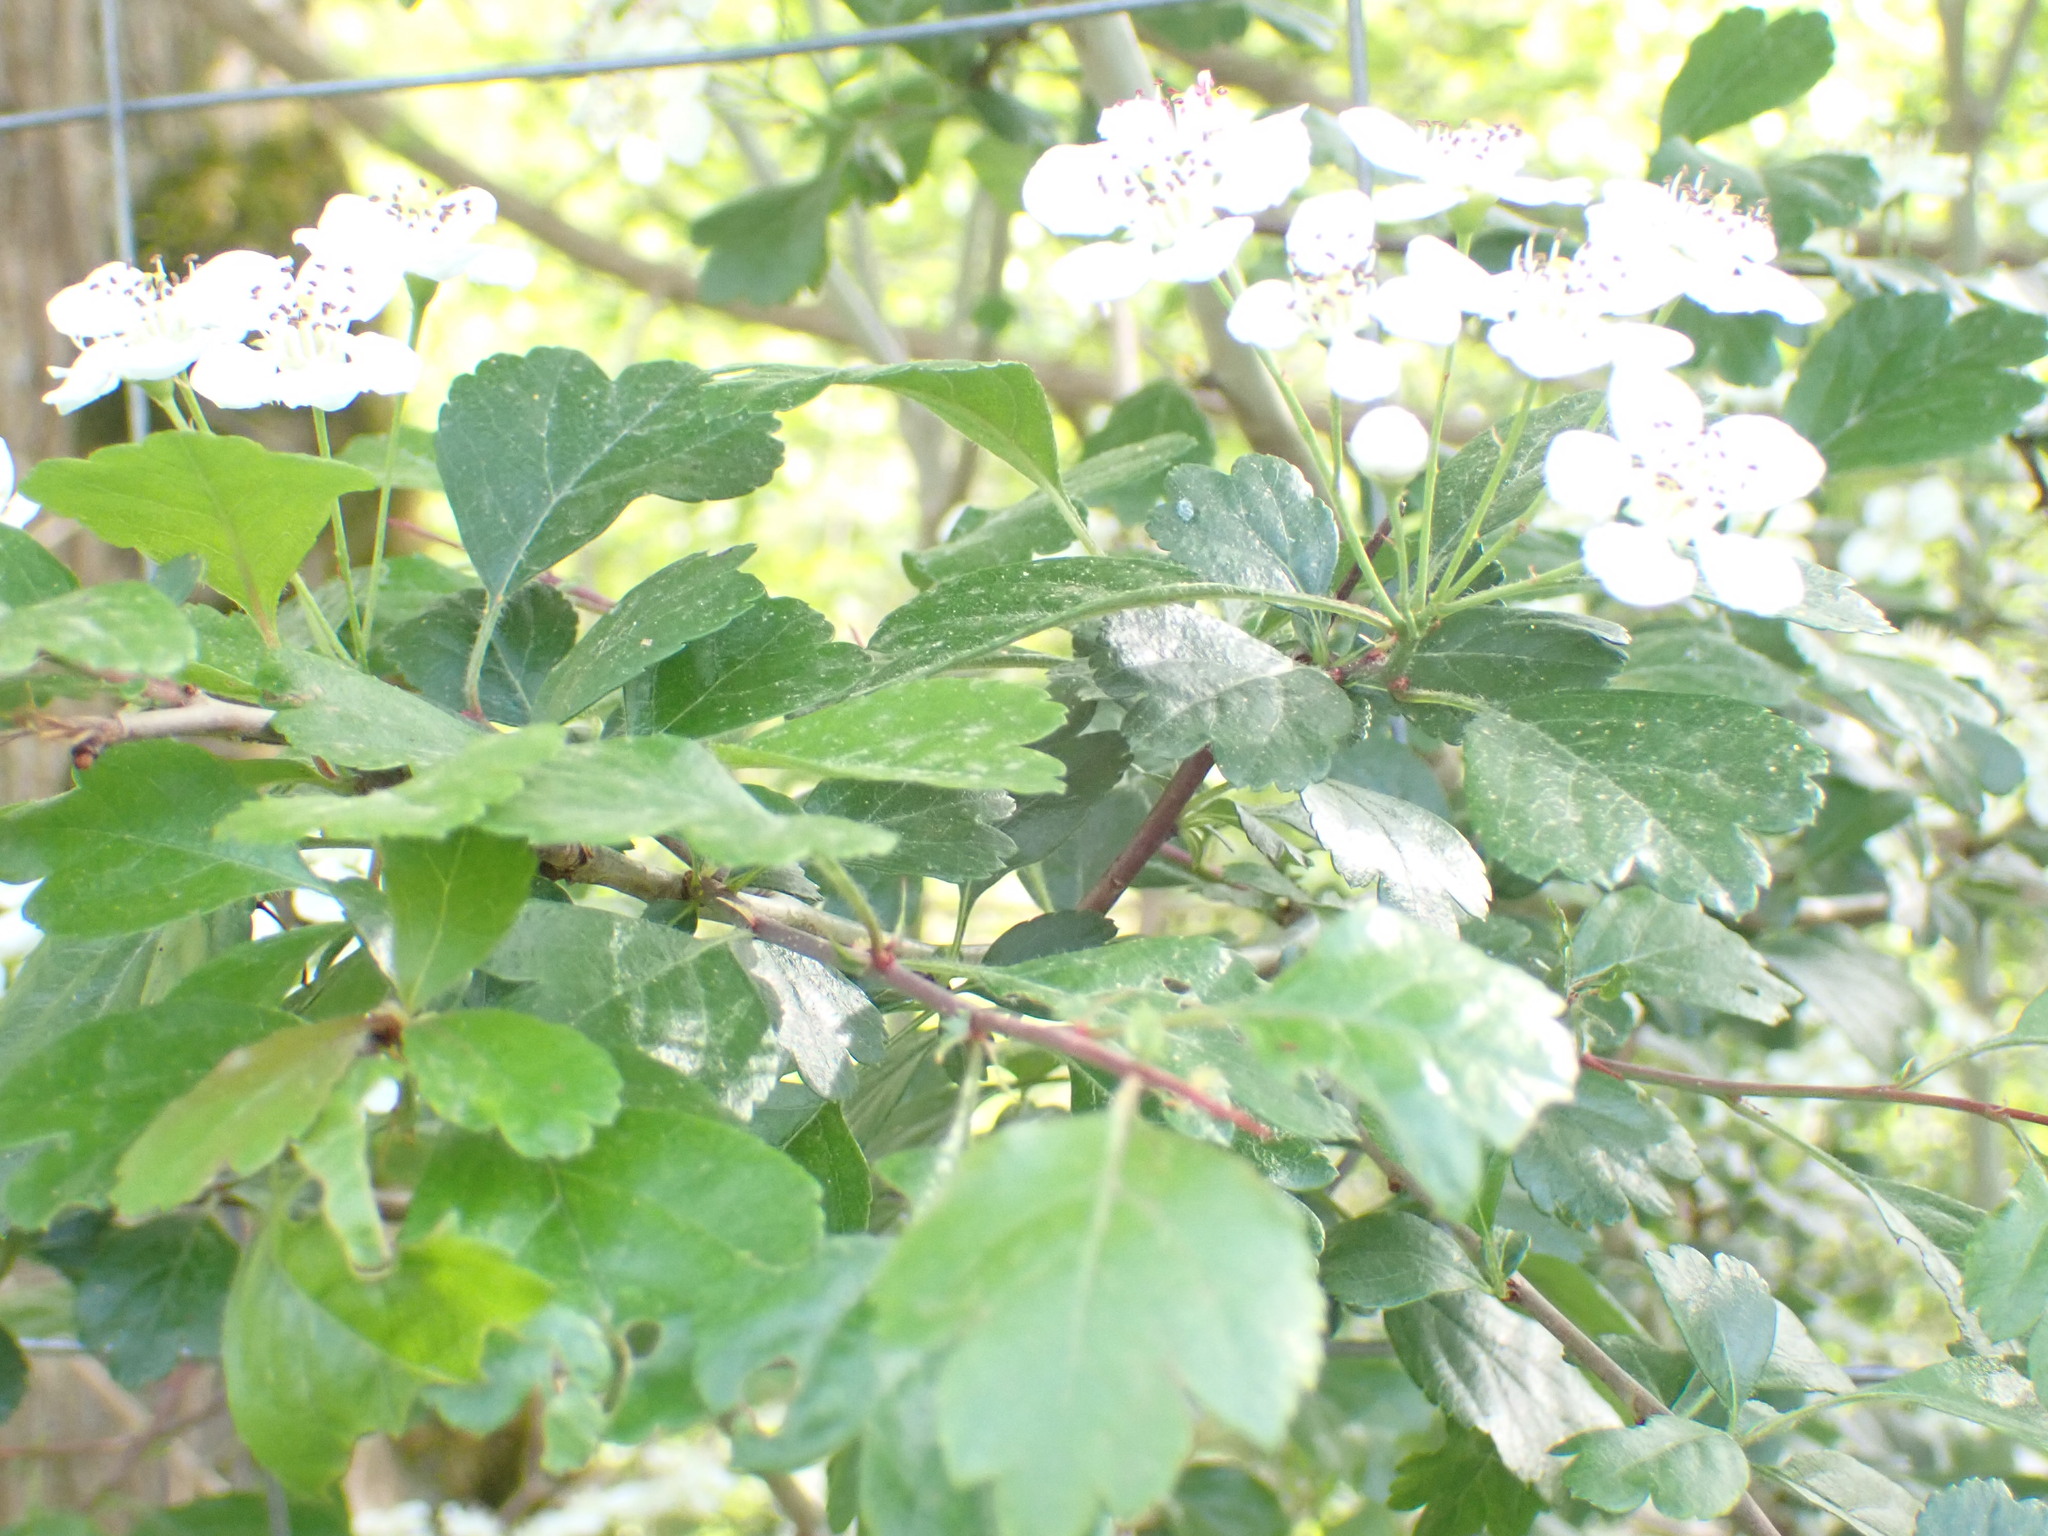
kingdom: Plantae
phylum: Tracheophyta
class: Magnoliopsida
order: Rosales
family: Rosaceae
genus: Crataegus
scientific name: Crataegus laevigata
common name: Midland hawthorn
